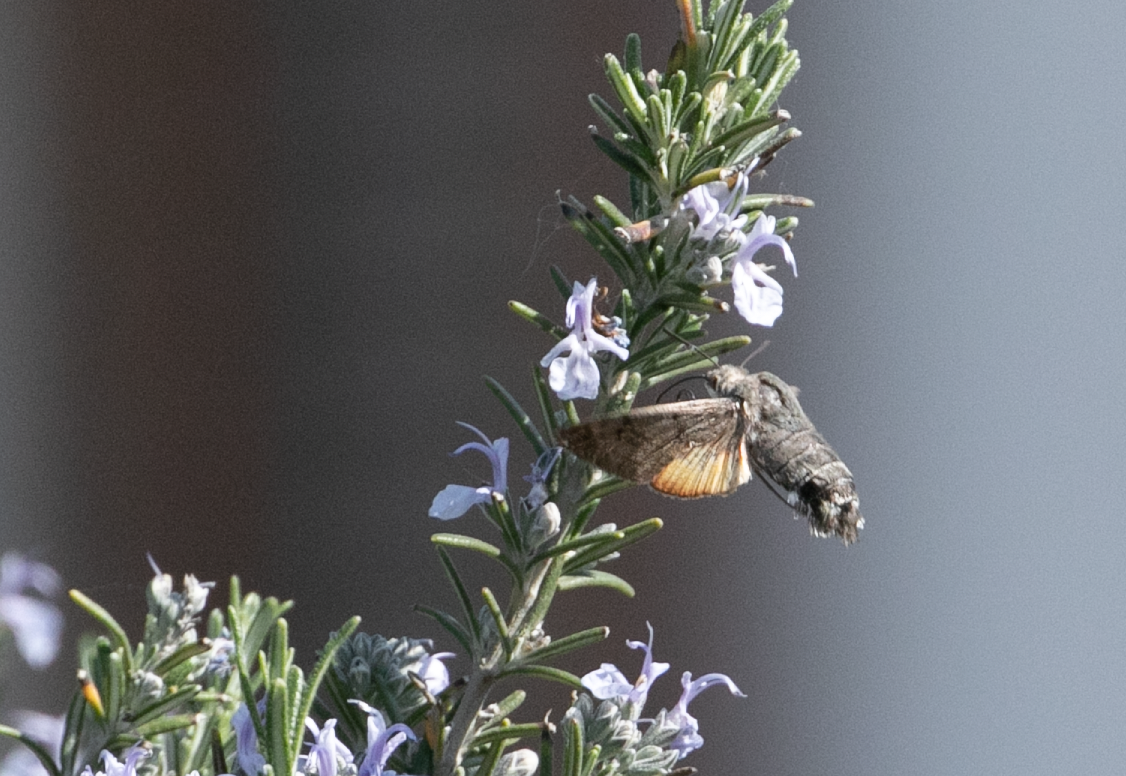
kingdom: Animalia
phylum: Arthropoda
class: Insecta
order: Lepidoptera
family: Sphingidae
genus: Macroglossum
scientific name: Macroglossum stellatarum
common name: Humming-bird hawk-moth
